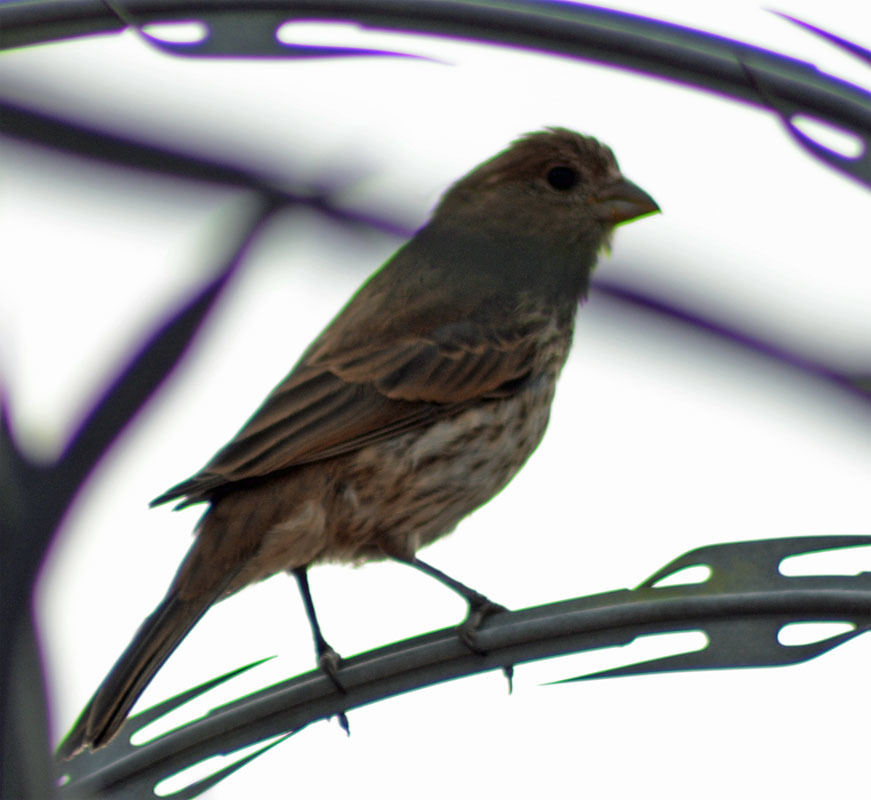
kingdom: Animalia
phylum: Chordata
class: Aves
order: Passeriformes
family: Fringillidae
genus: Haemorhous
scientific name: Haemorhous mexicanus
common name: House finch
